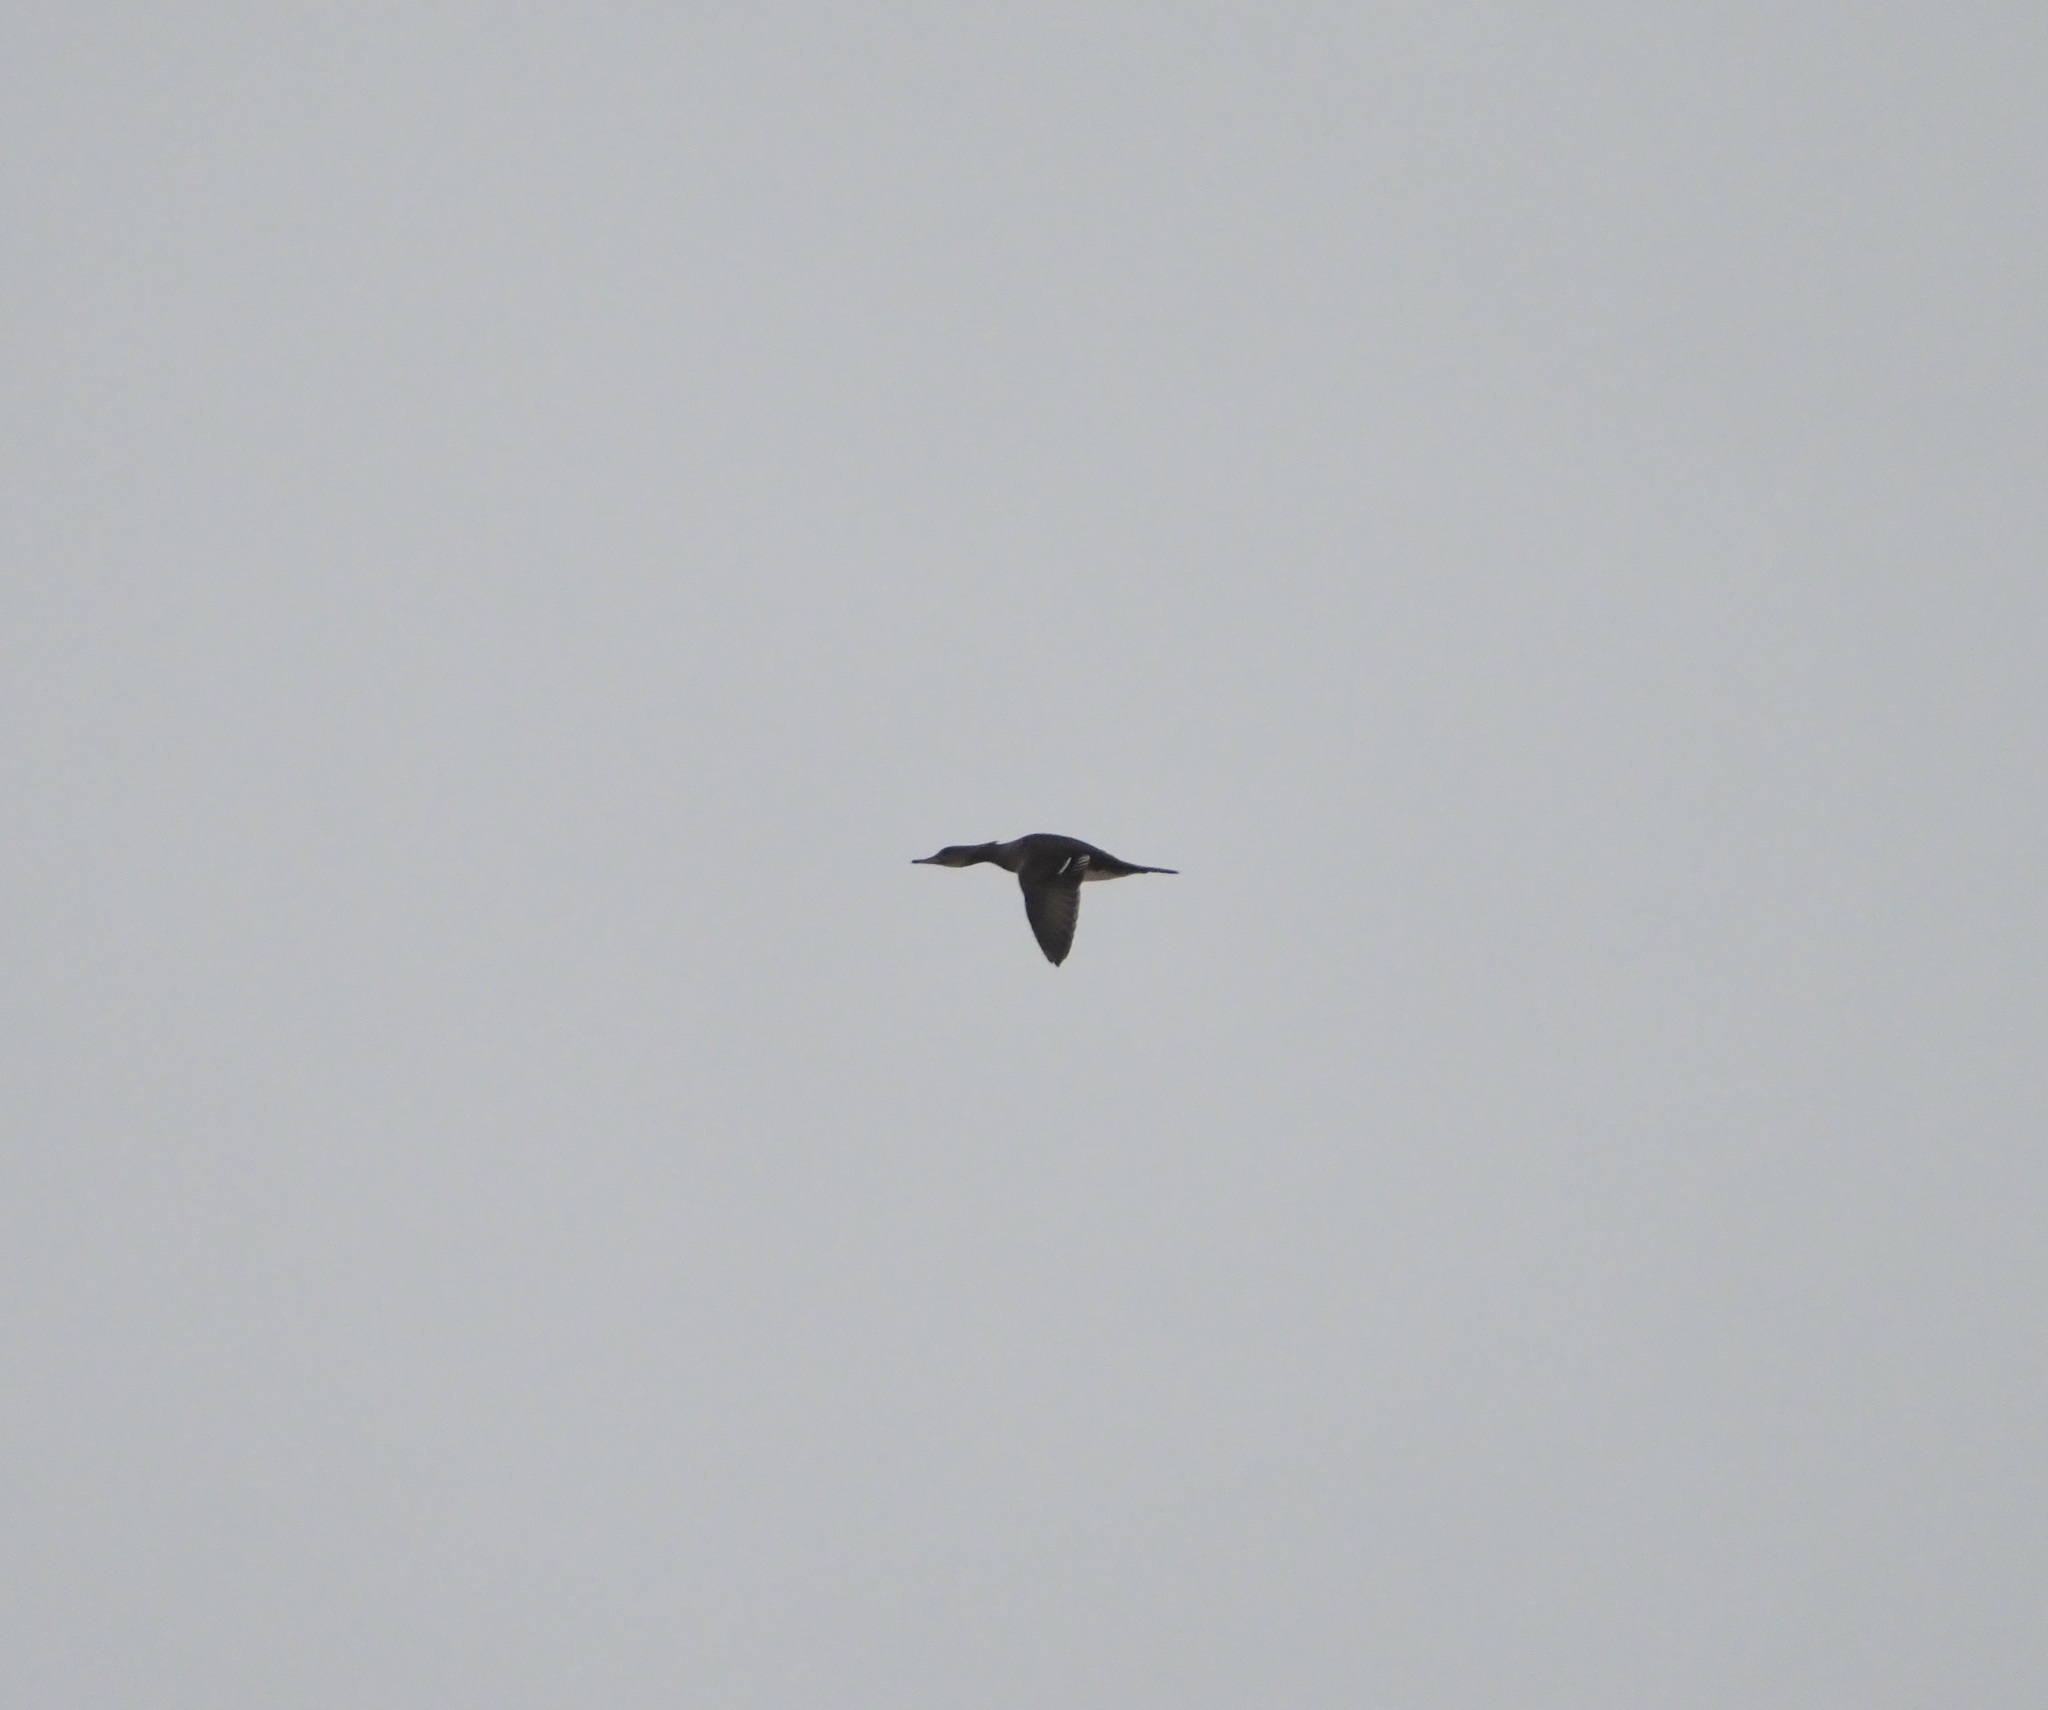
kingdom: Animalia
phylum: Chordata
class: Aves
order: Anseriformes
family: Anatidae
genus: Lophodytes
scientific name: Lophodytes cucullatus
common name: Hooded merganser
